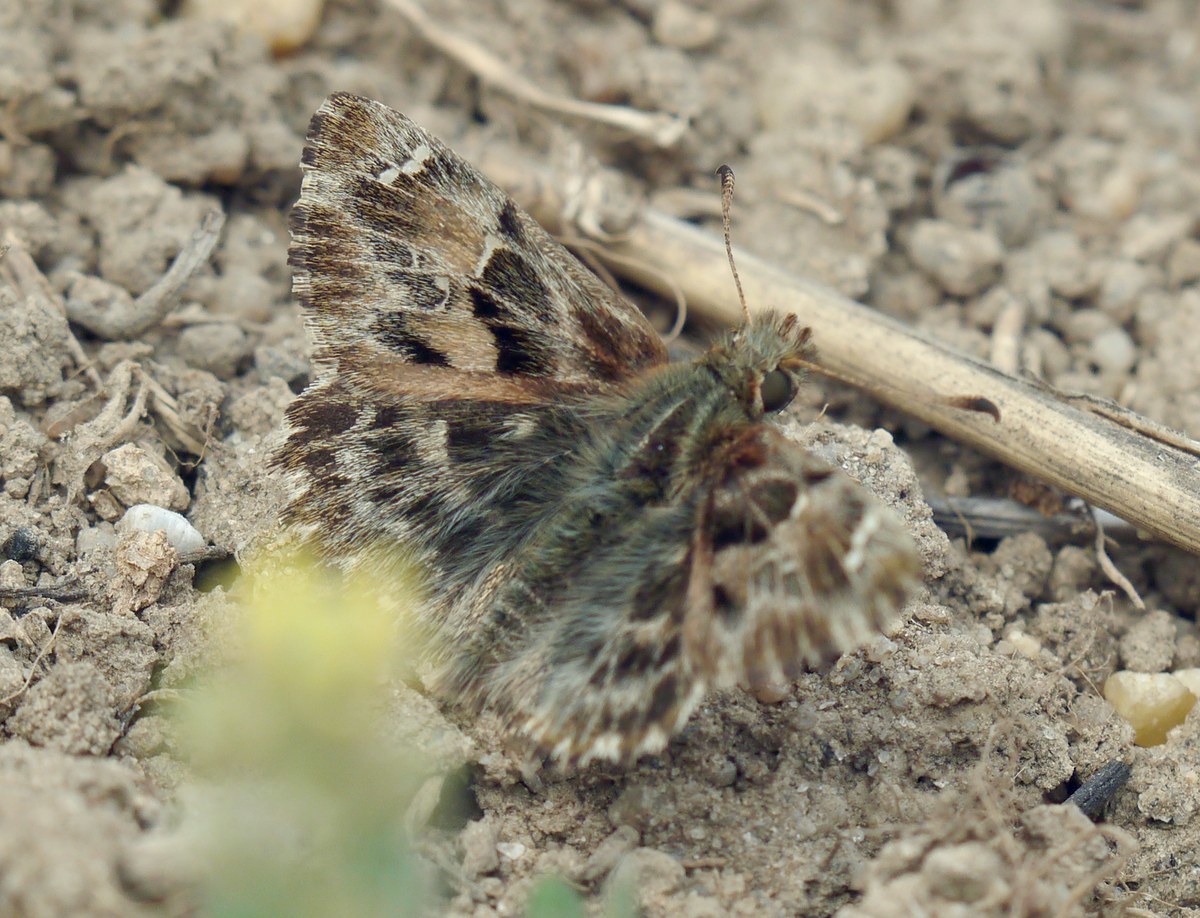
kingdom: Animalia
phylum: Arthropoda
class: Insecta
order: Lepidoptera
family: Hesperiidae
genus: Carcharodus
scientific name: Carcharodus alceae
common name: Mallow skipper
